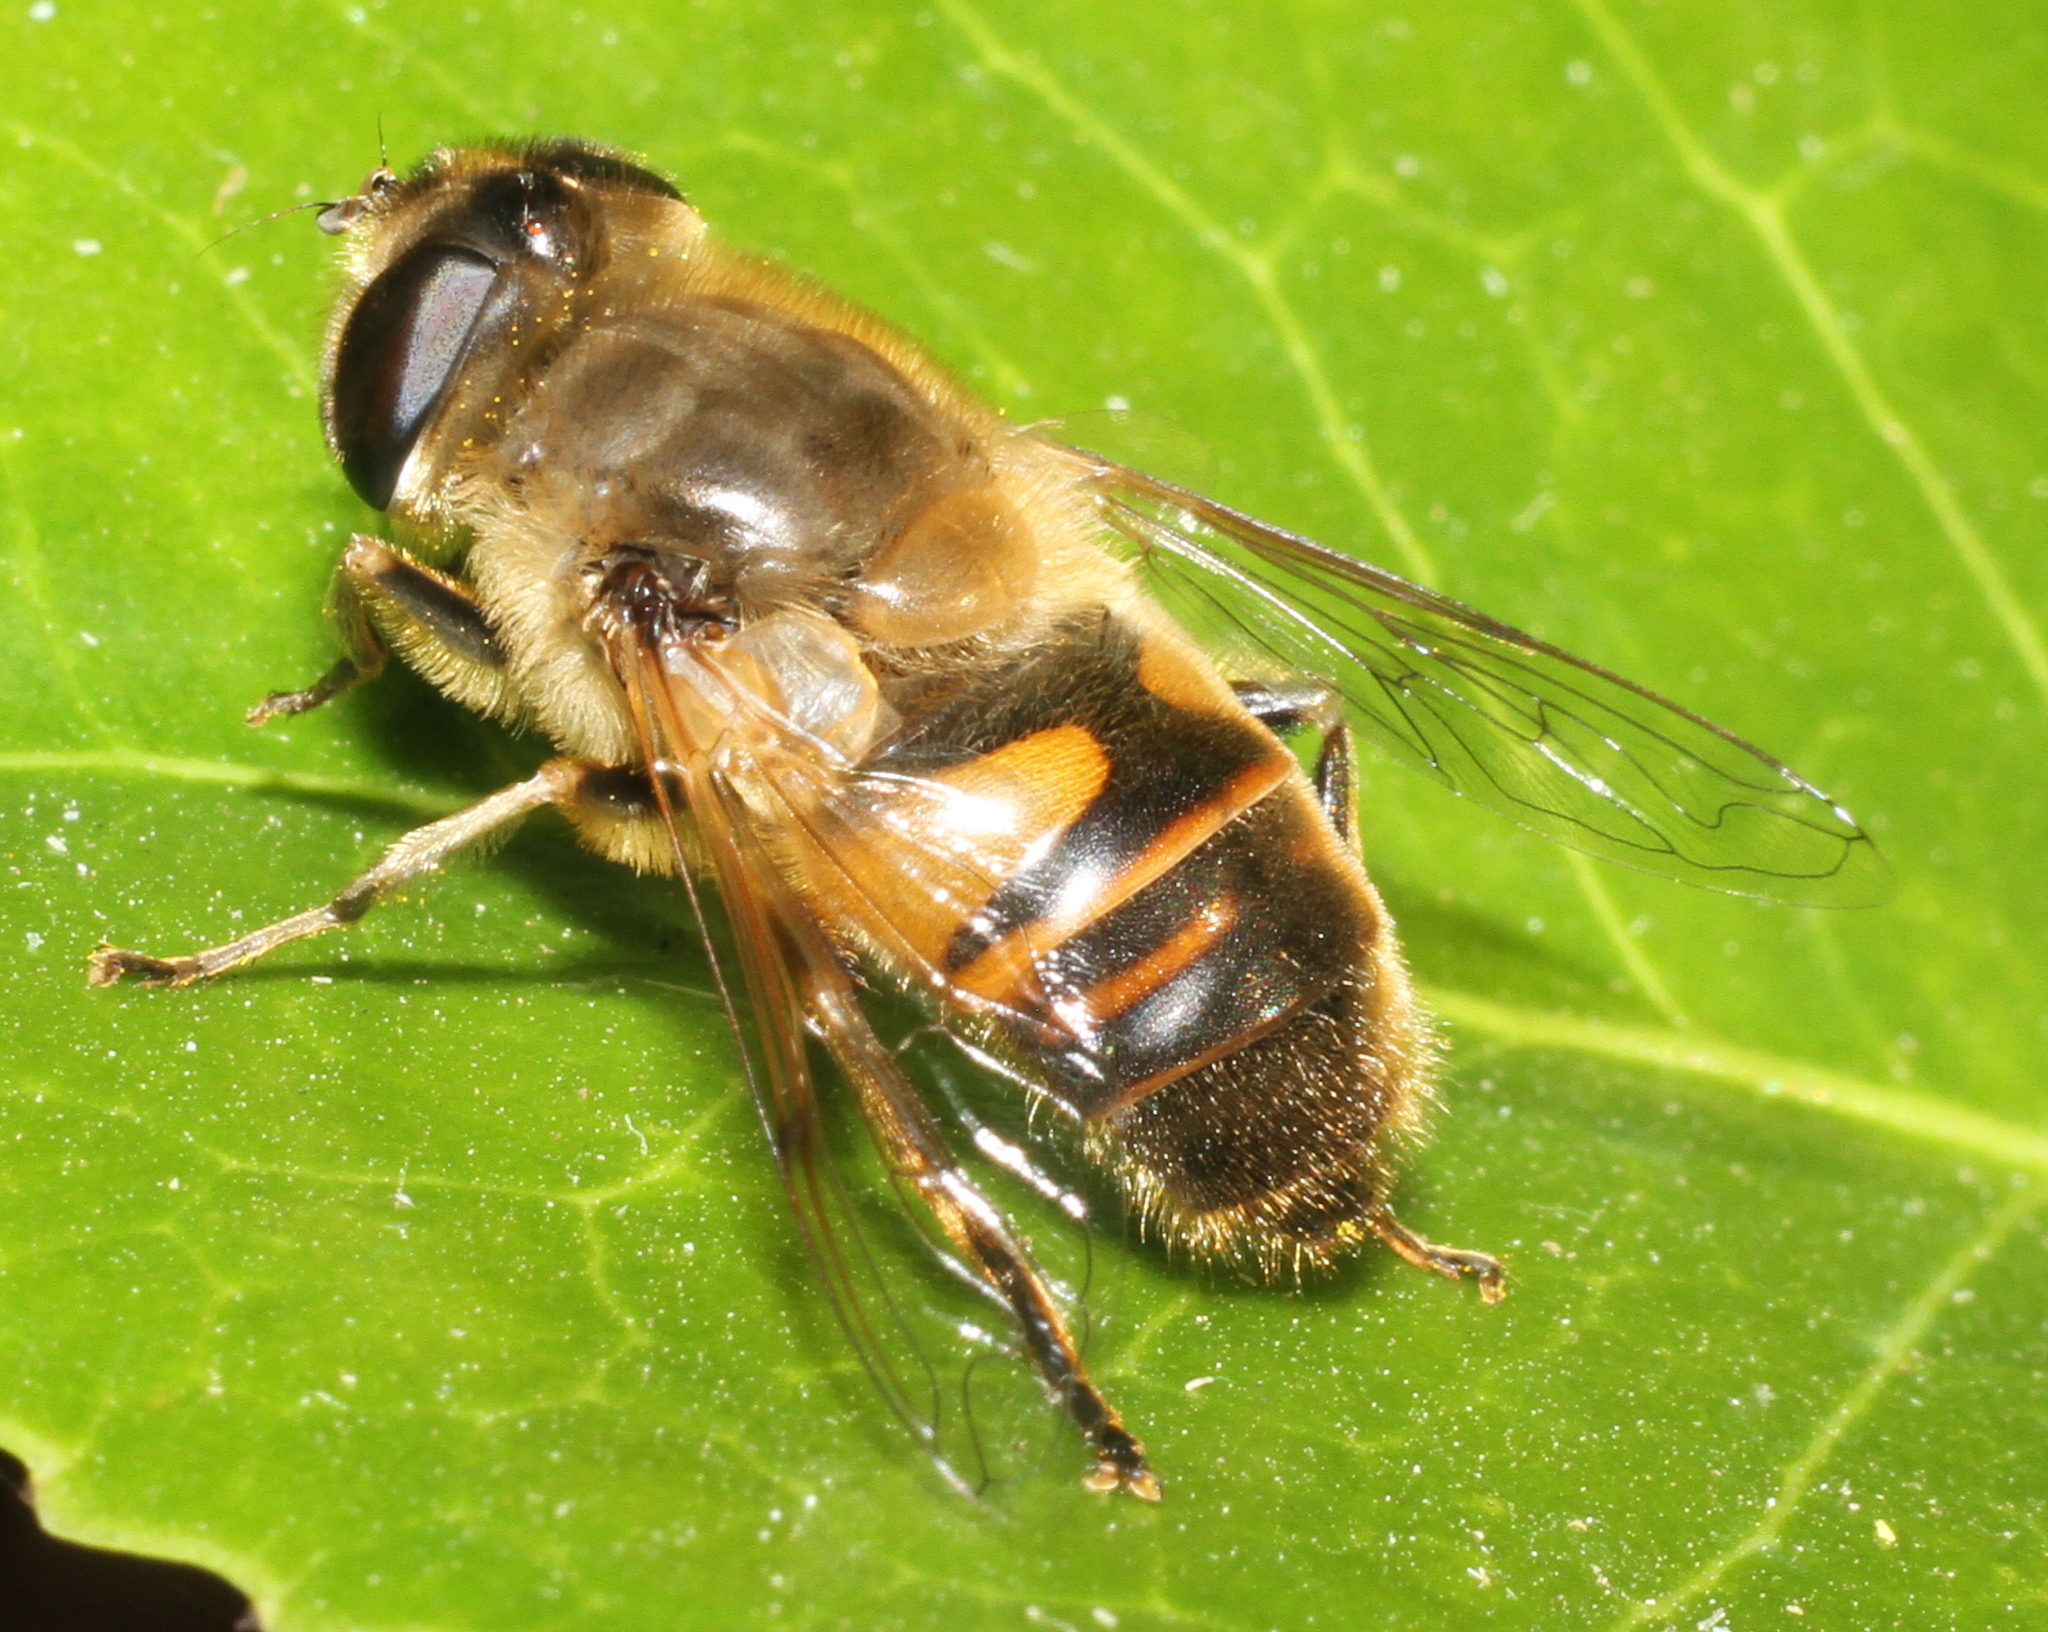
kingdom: Animalia
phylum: Arthropoda
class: Insecta
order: Diptera
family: Syrphidae
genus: Eristalis
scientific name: Eristalis tenax
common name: Drone fly
